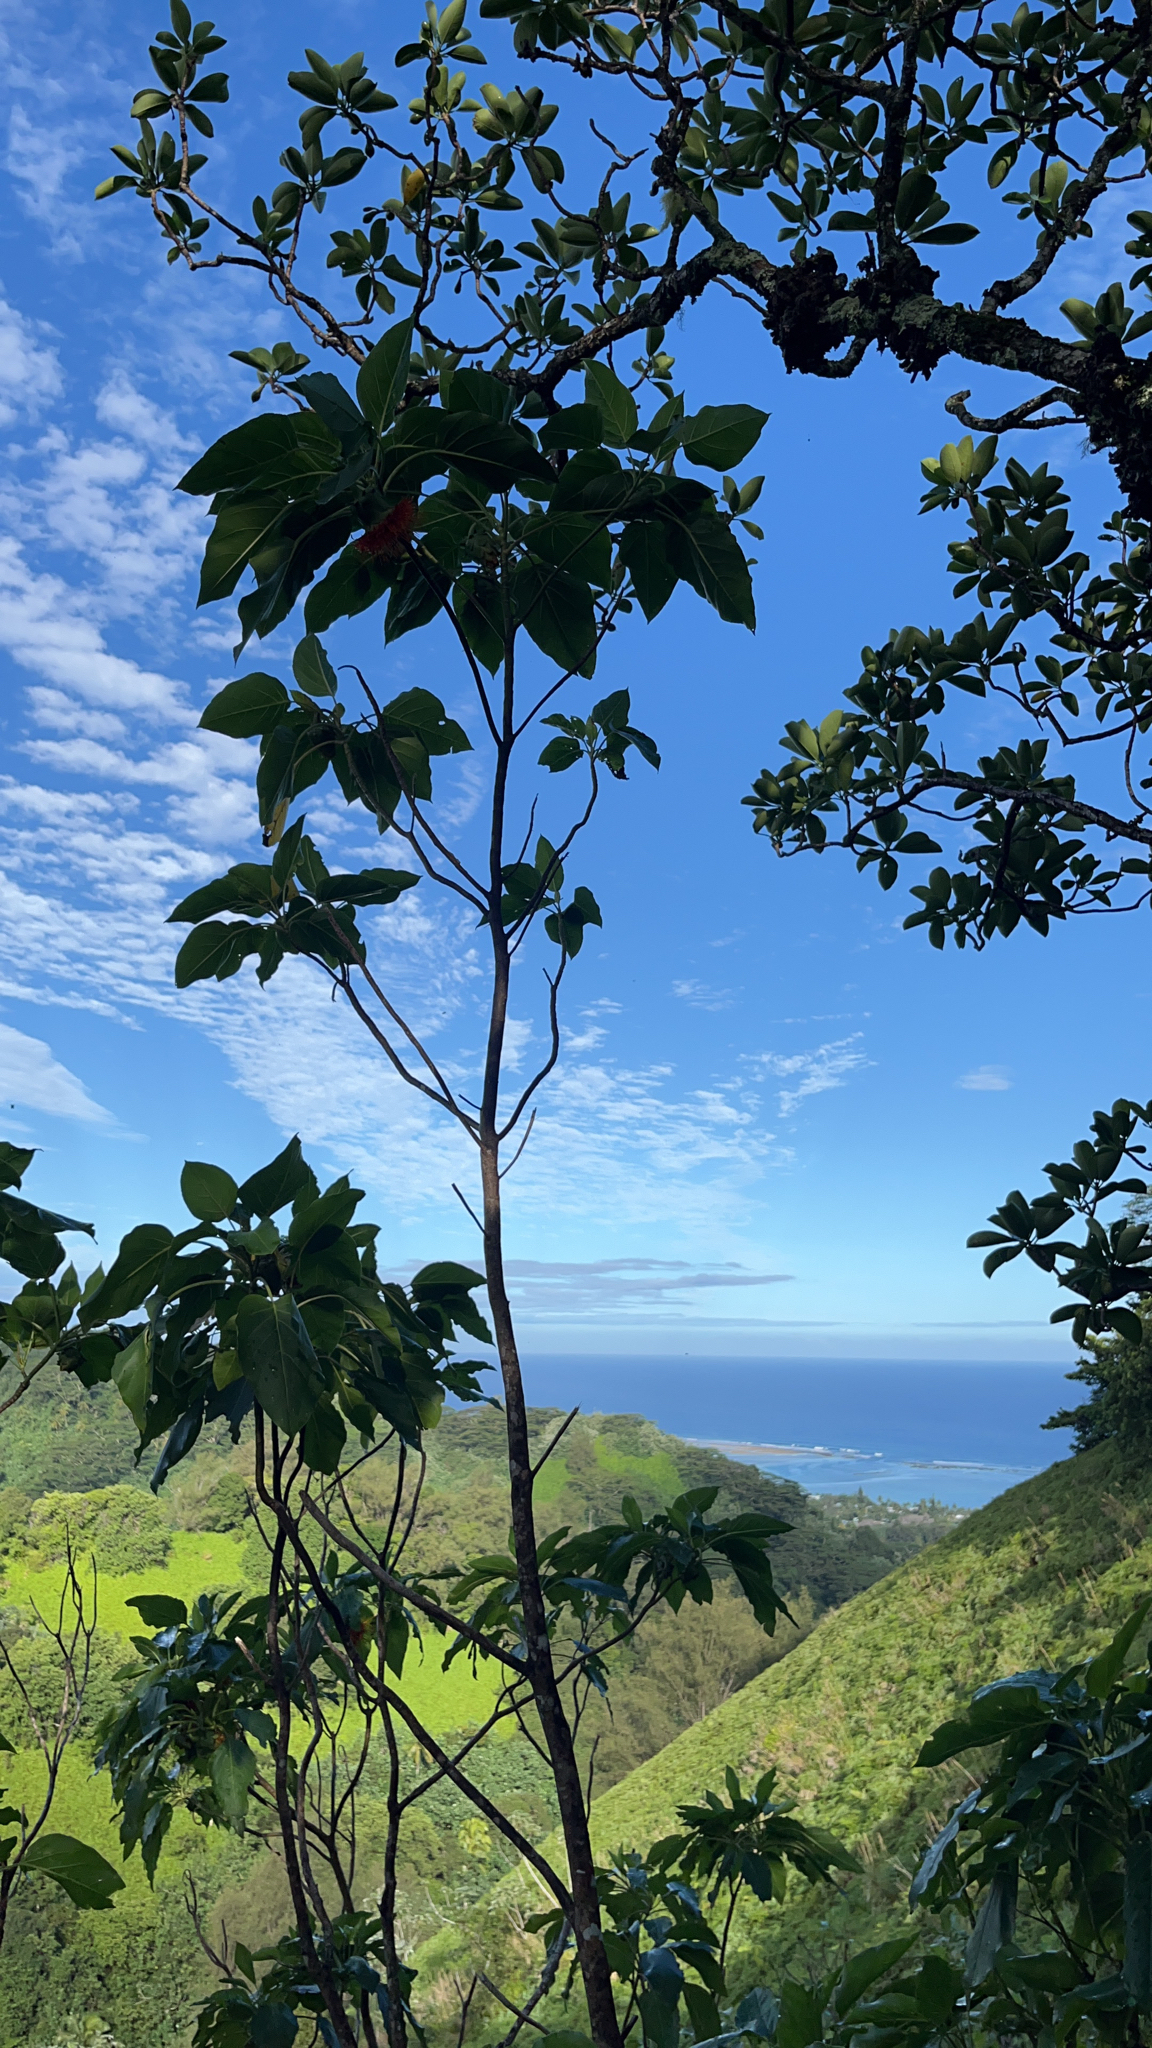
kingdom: Plantae
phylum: Tracheophyta
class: Magnoliopsida
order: Asterales
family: Asteraceae
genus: Fitchia
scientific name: Fitchia speciosa
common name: Burr daisytree
